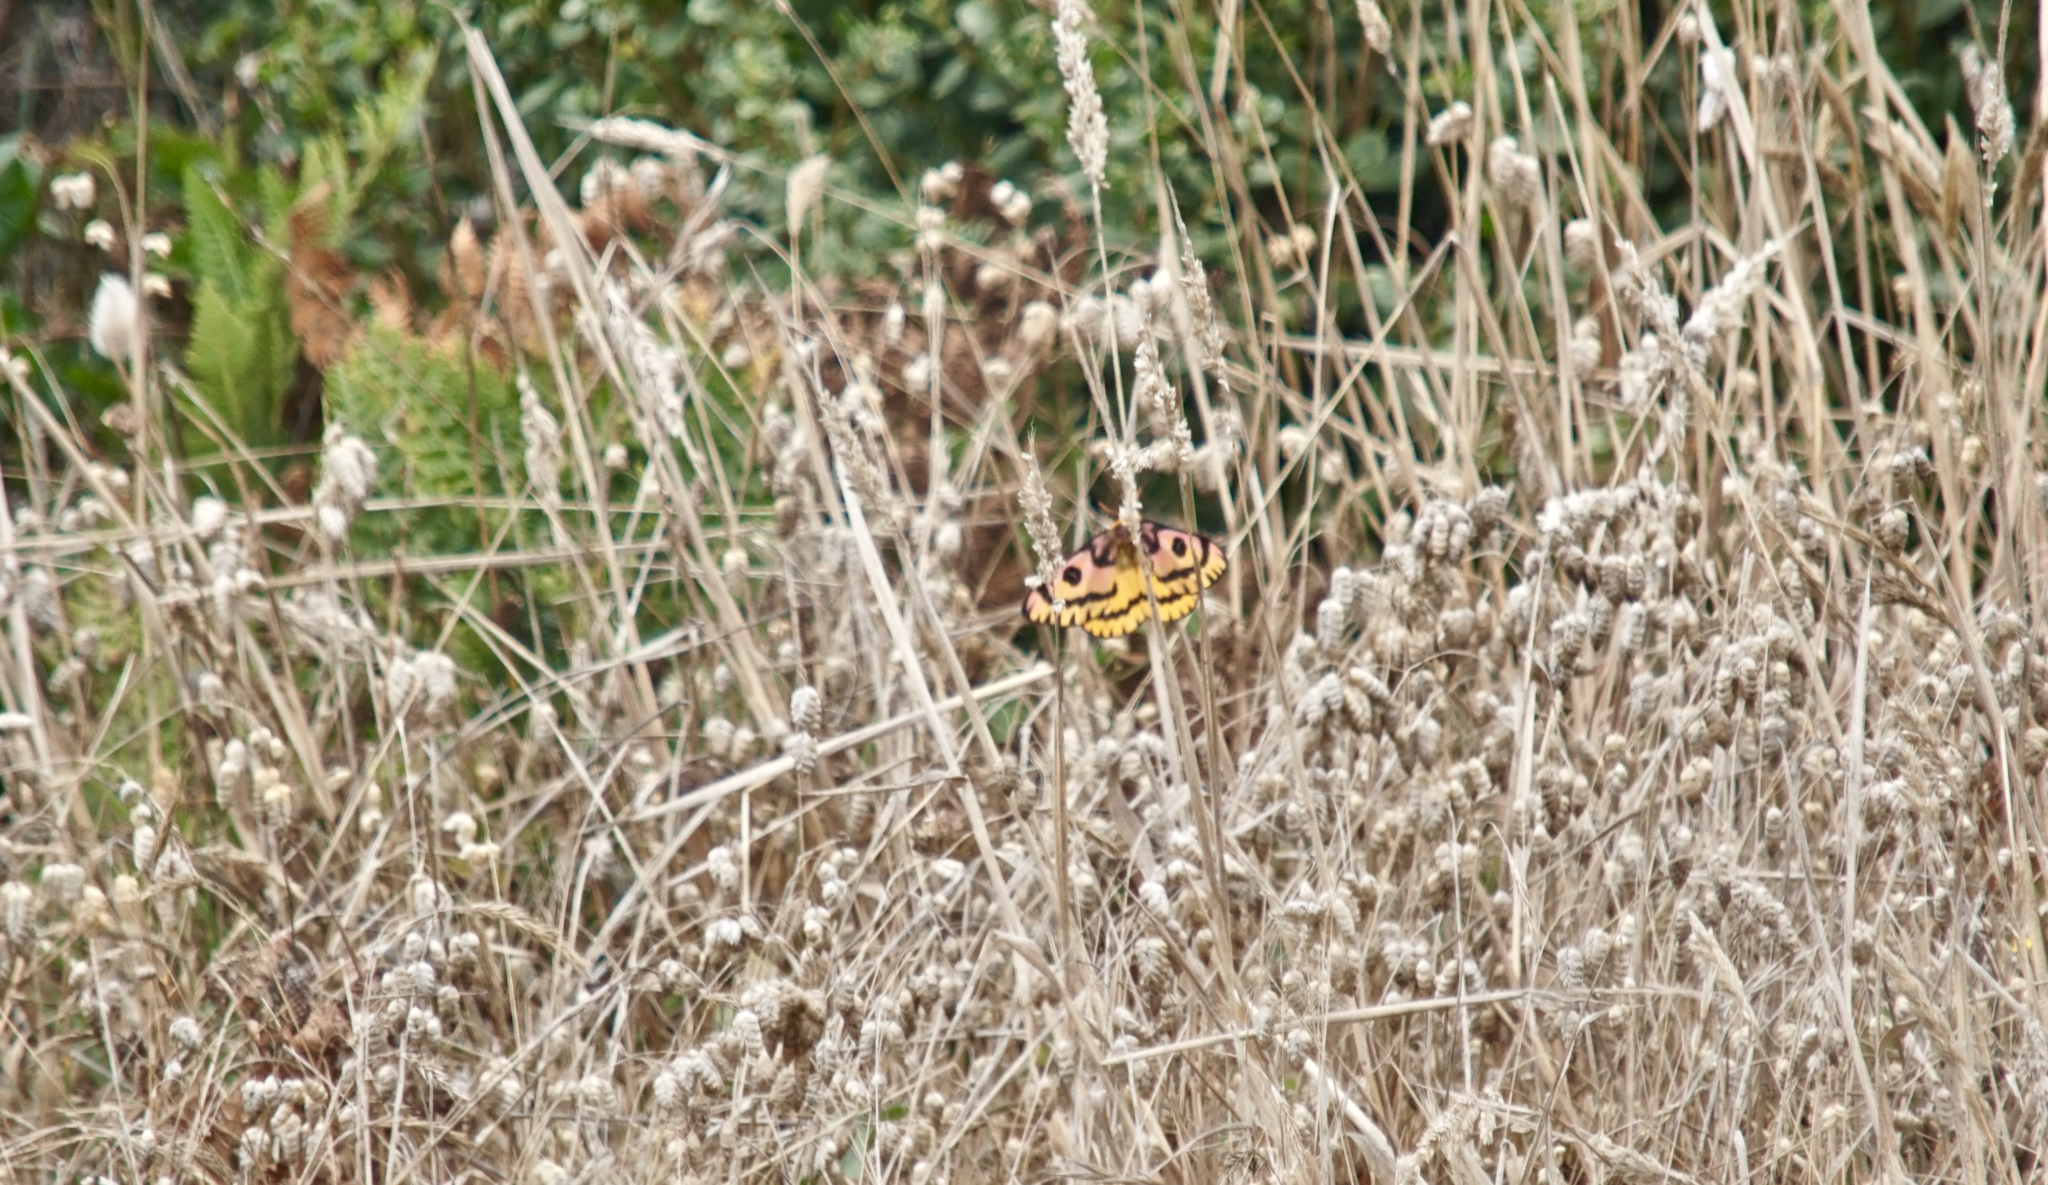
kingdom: Animalia
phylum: Arthropoda
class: Insecta
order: Lepidoptera
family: Saturniidae
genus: Hemileuca
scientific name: Hemileuca eglanterina
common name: Western sheepmoth
